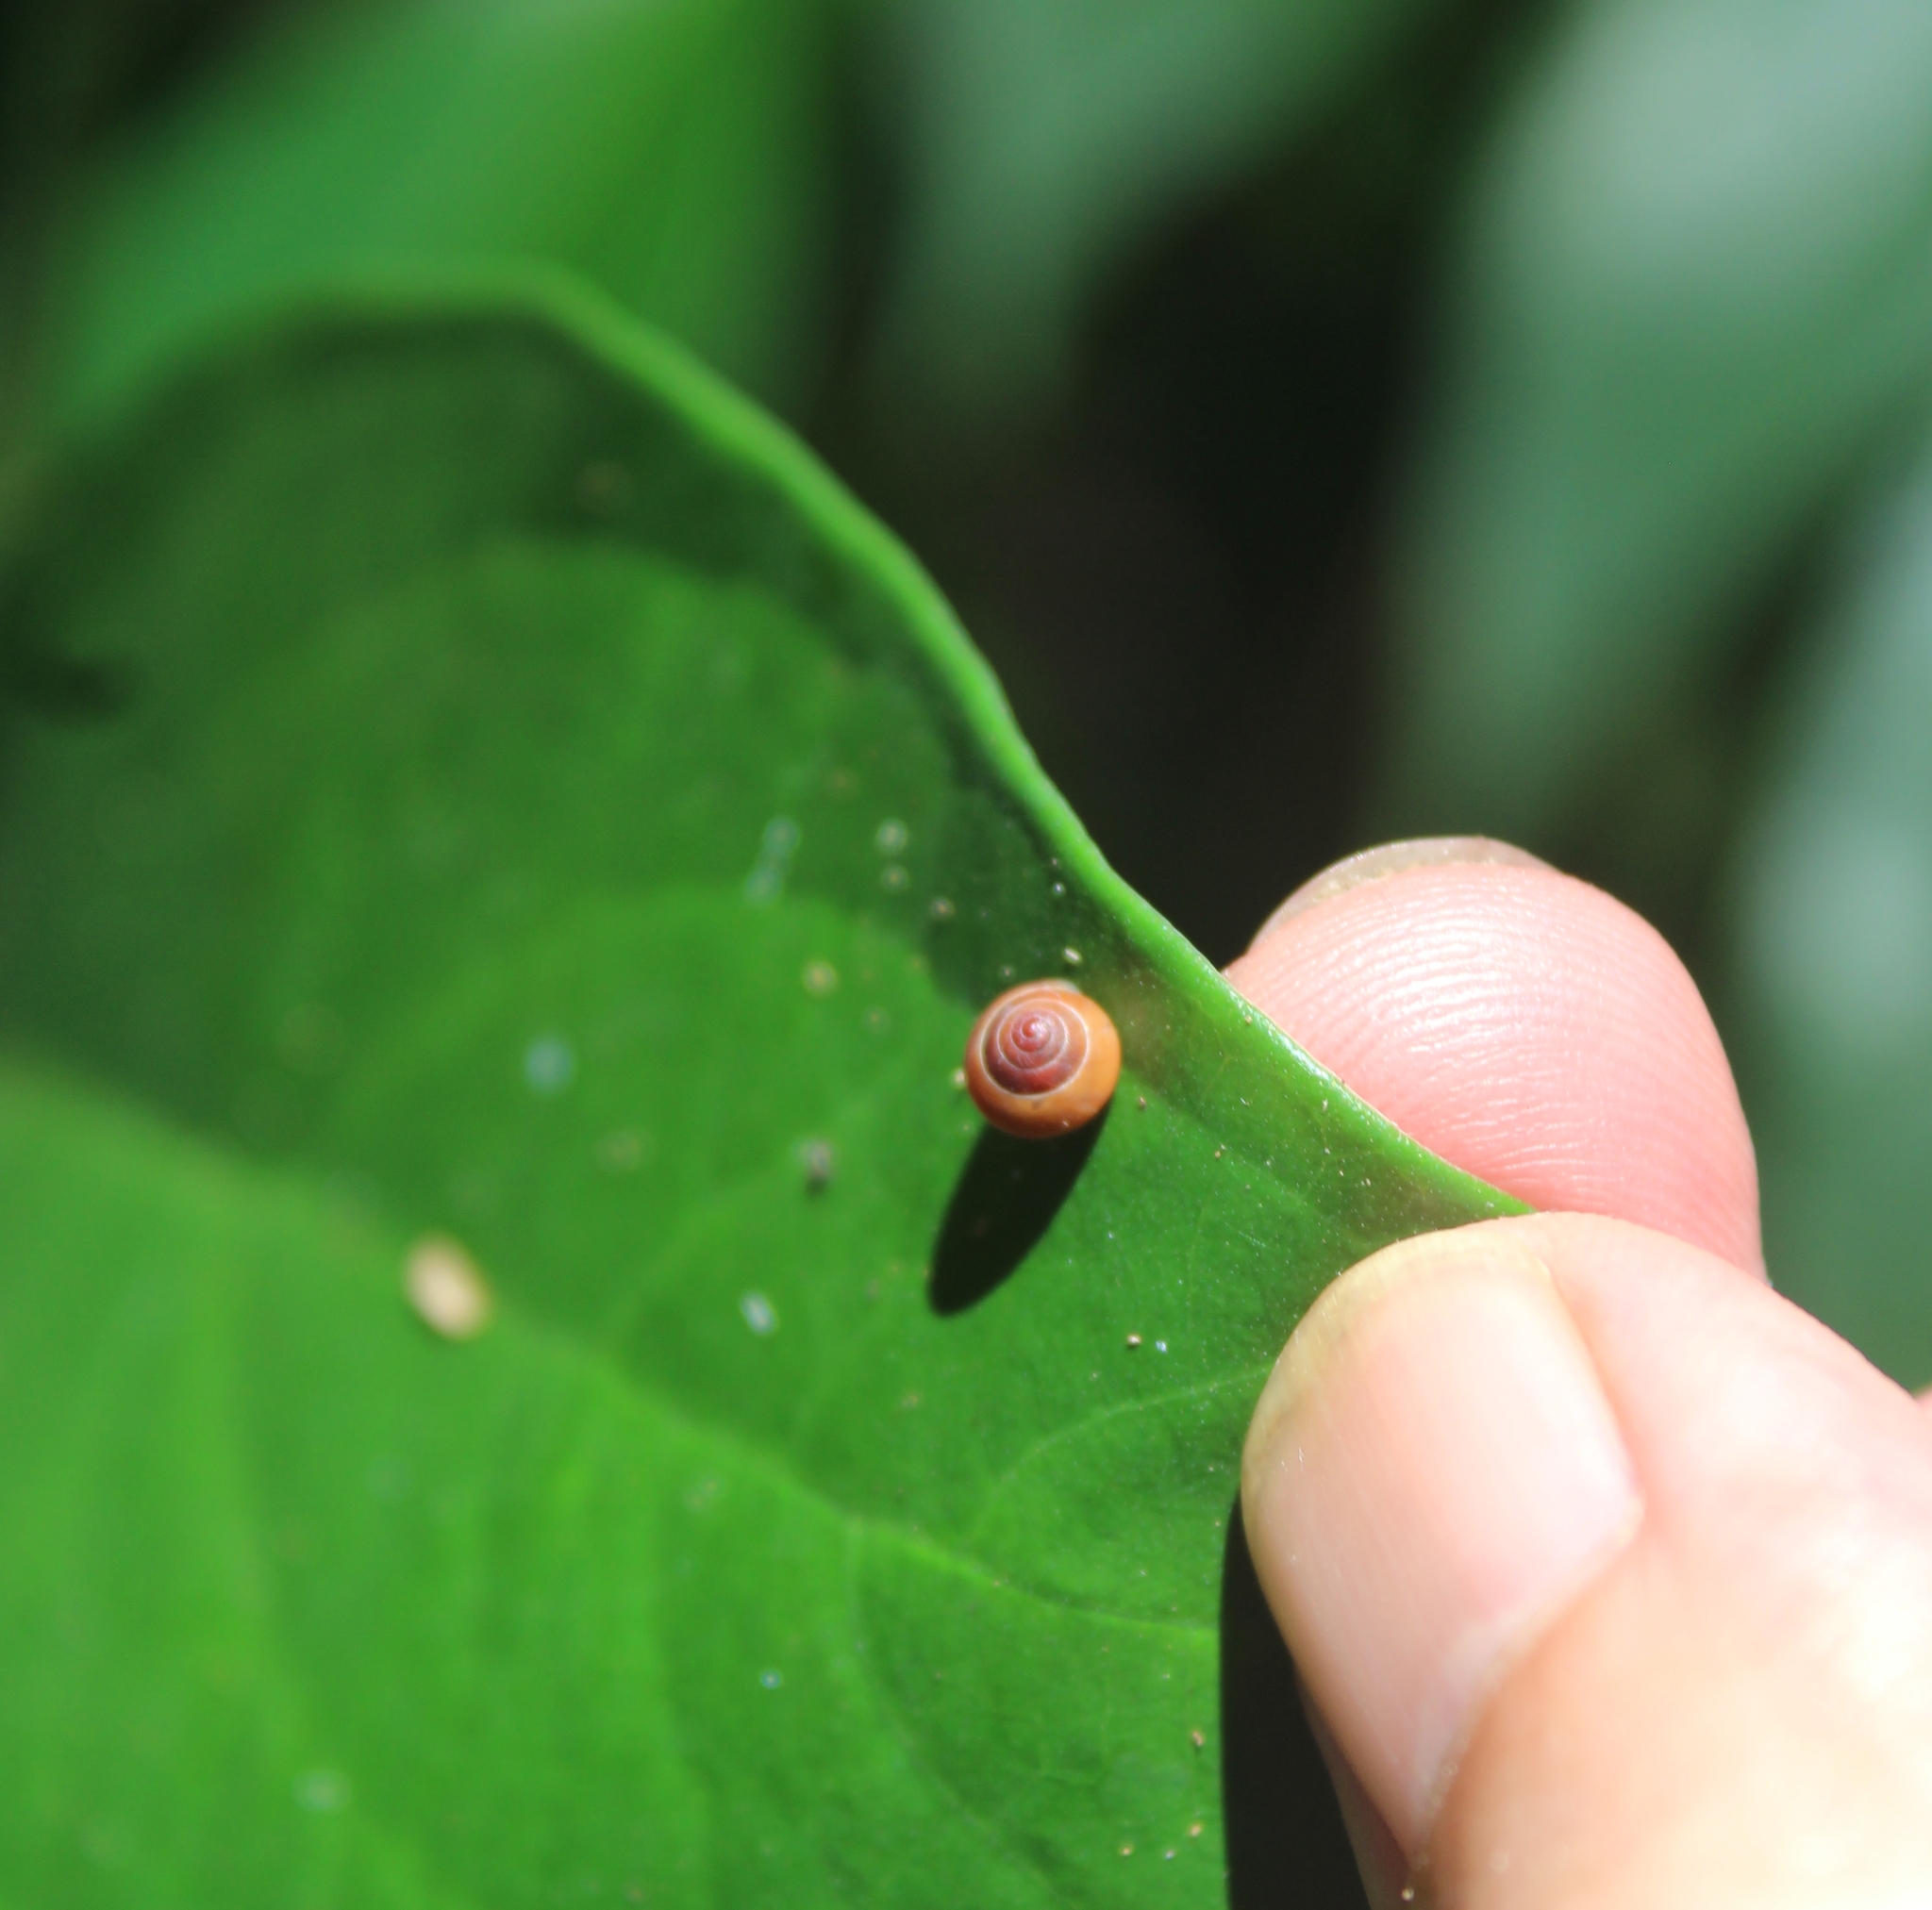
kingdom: Animalia
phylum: Mollusca
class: Gastropoda
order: Cycloneritida
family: Helicinidae
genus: Helicina
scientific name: Helicina tenuis
